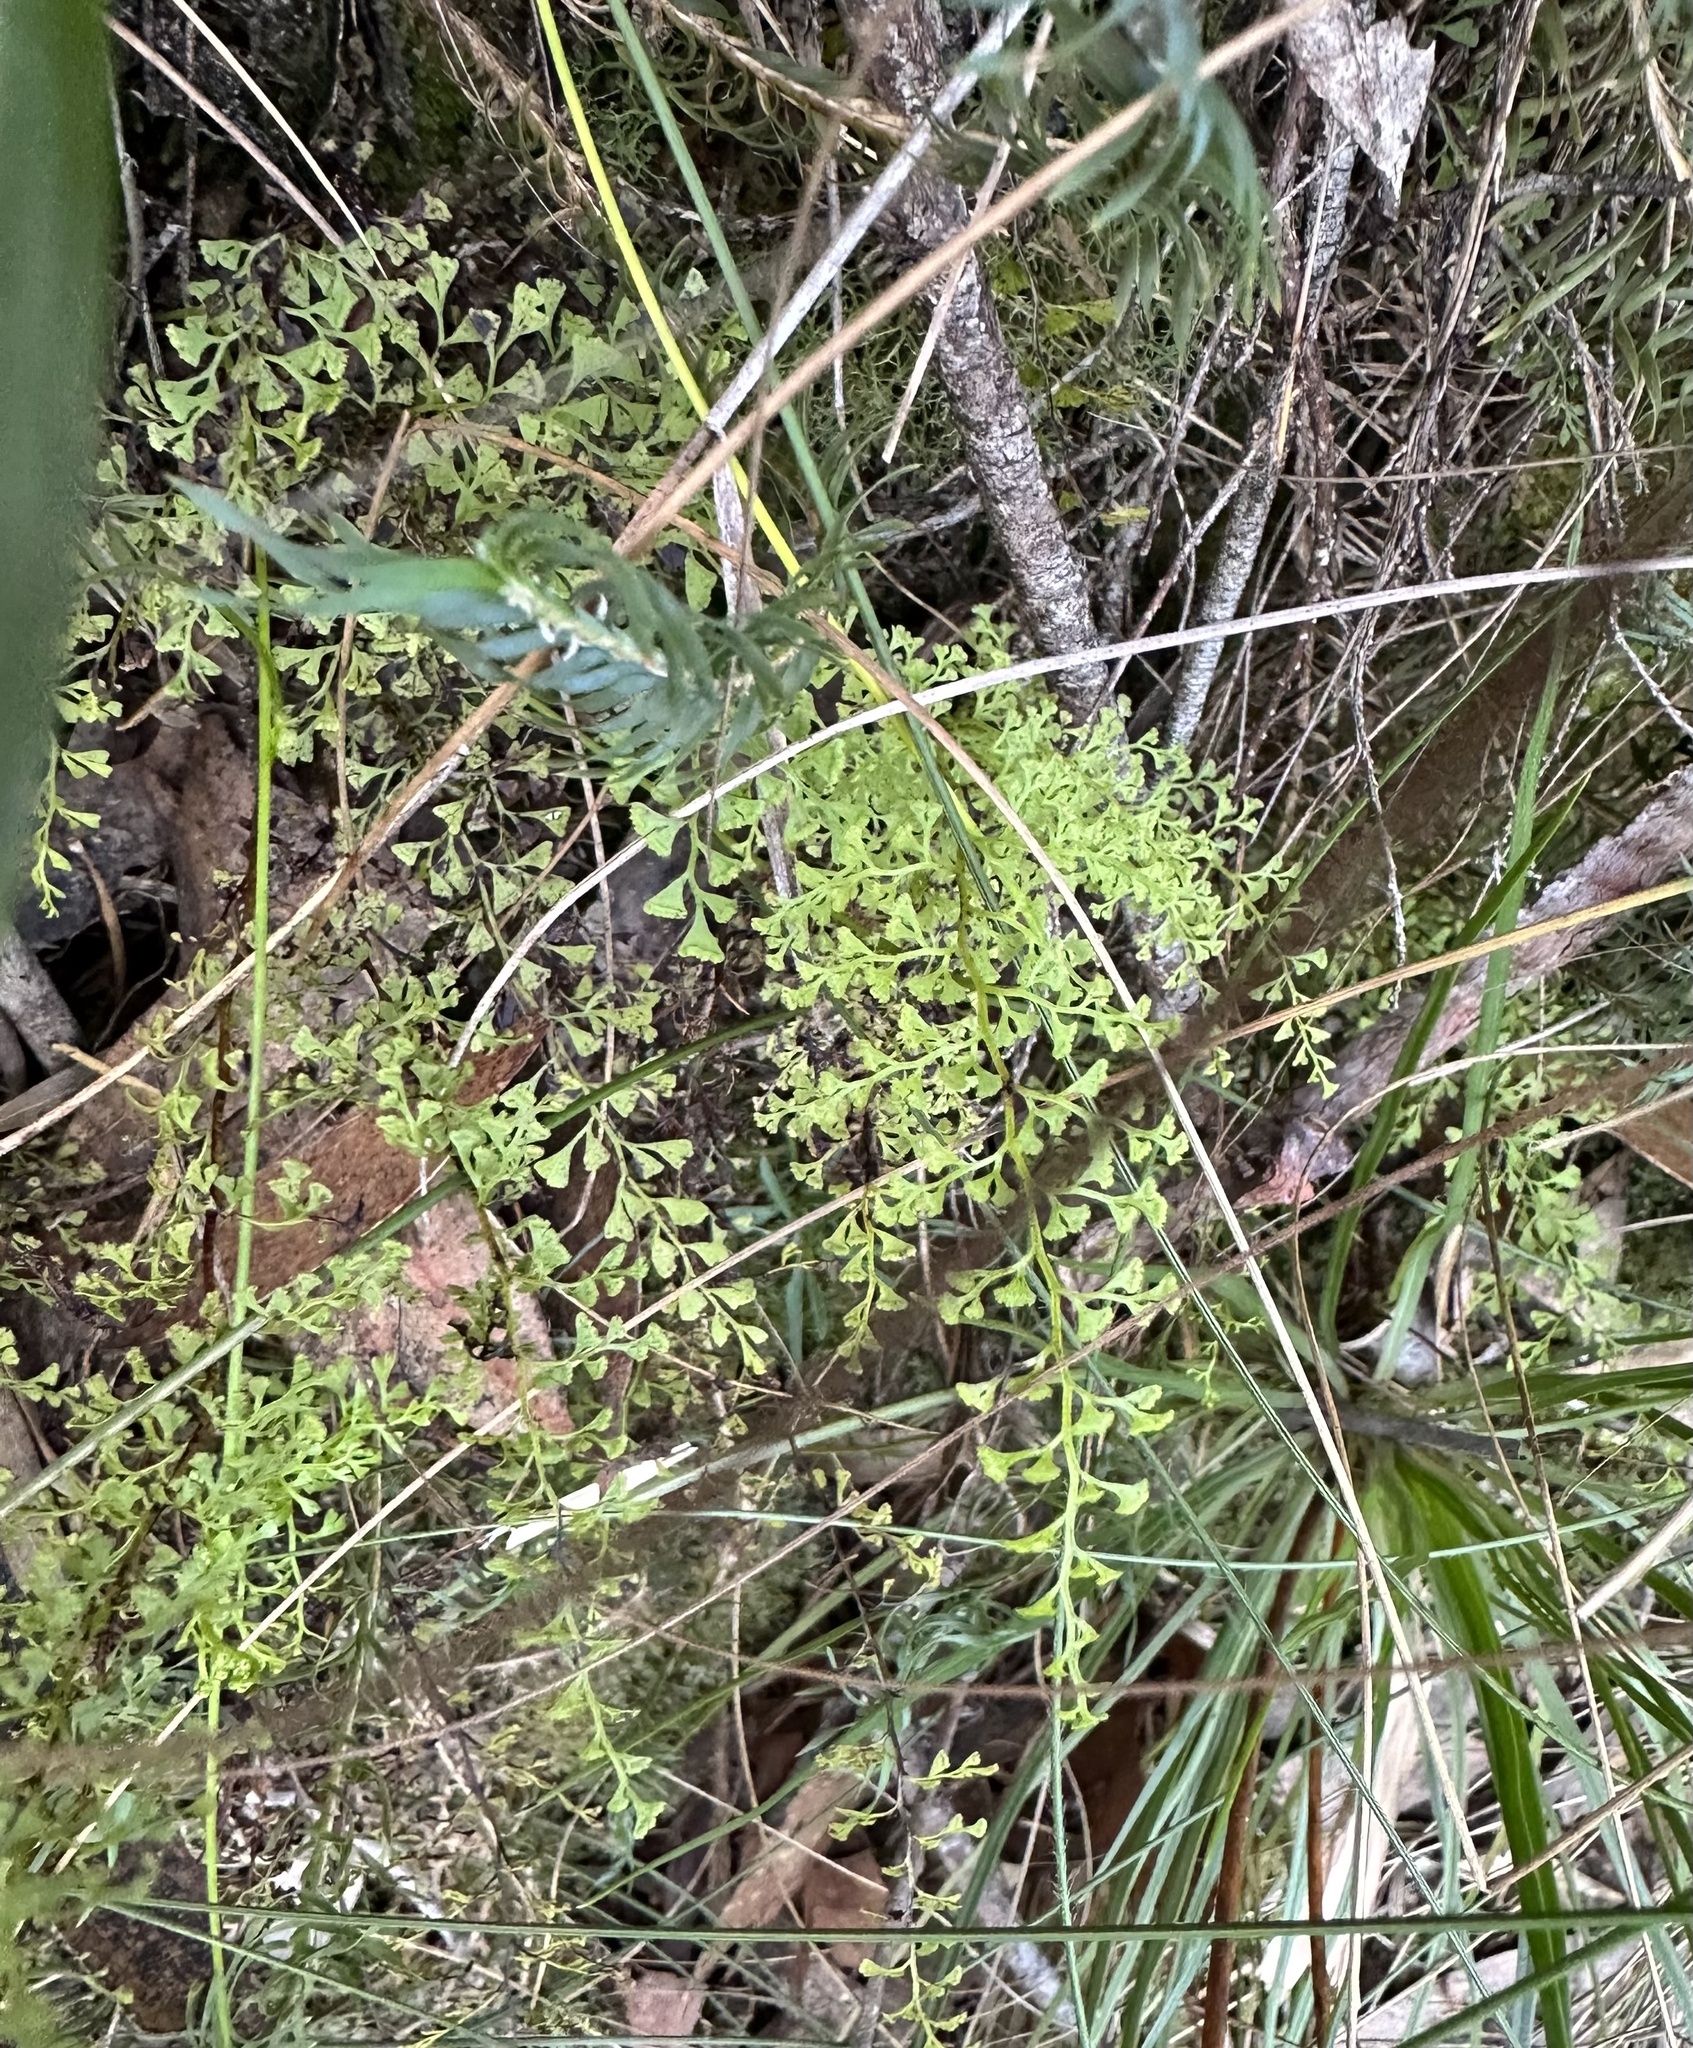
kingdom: Plantae
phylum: Tracheophyta
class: Polypodiopsida
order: Polypodiales
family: Lindsaeaceae
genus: Lindsaea
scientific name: Lindsaea microphylla
